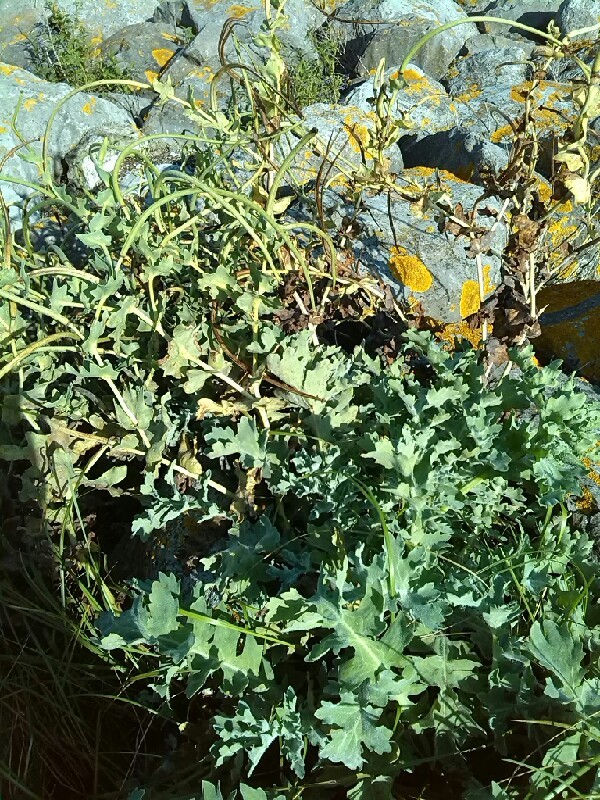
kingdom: Plantae
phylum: Tracheophyta
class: Magnoliopsida
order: Ranunculales
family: Papaveraceae
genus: Glaucium
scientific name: Glaucium flavum
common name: Yellow horned-poppy
